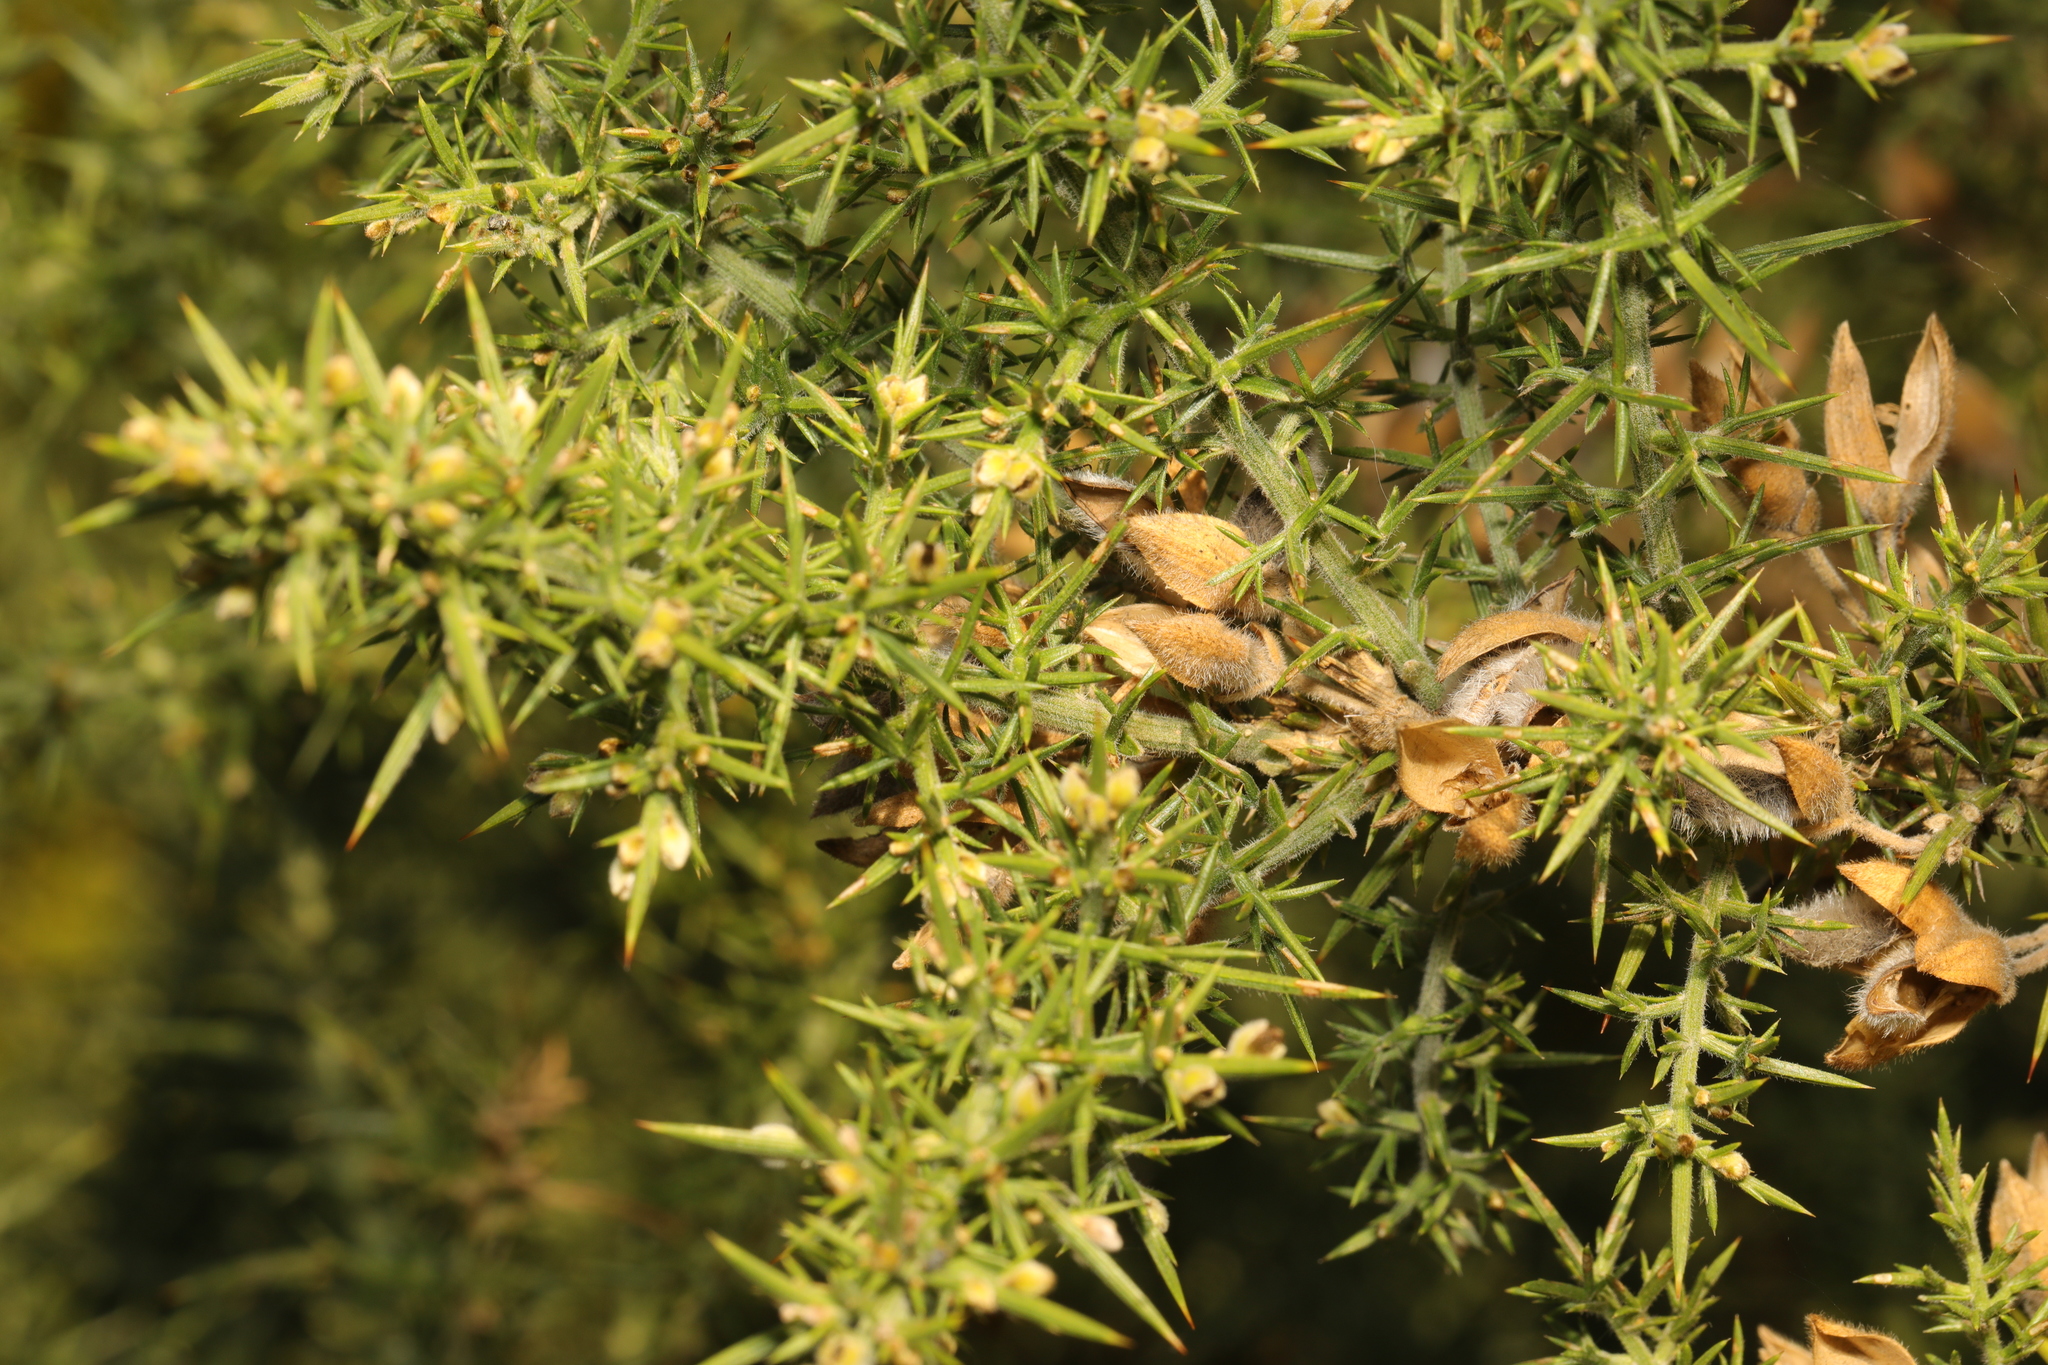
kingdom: Plantae
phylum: Tracheophyta
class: Magnoliopsida
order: Fabales
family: Fabaceae
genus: Ulex
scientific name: Ulex europaeus
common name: Common gorse
